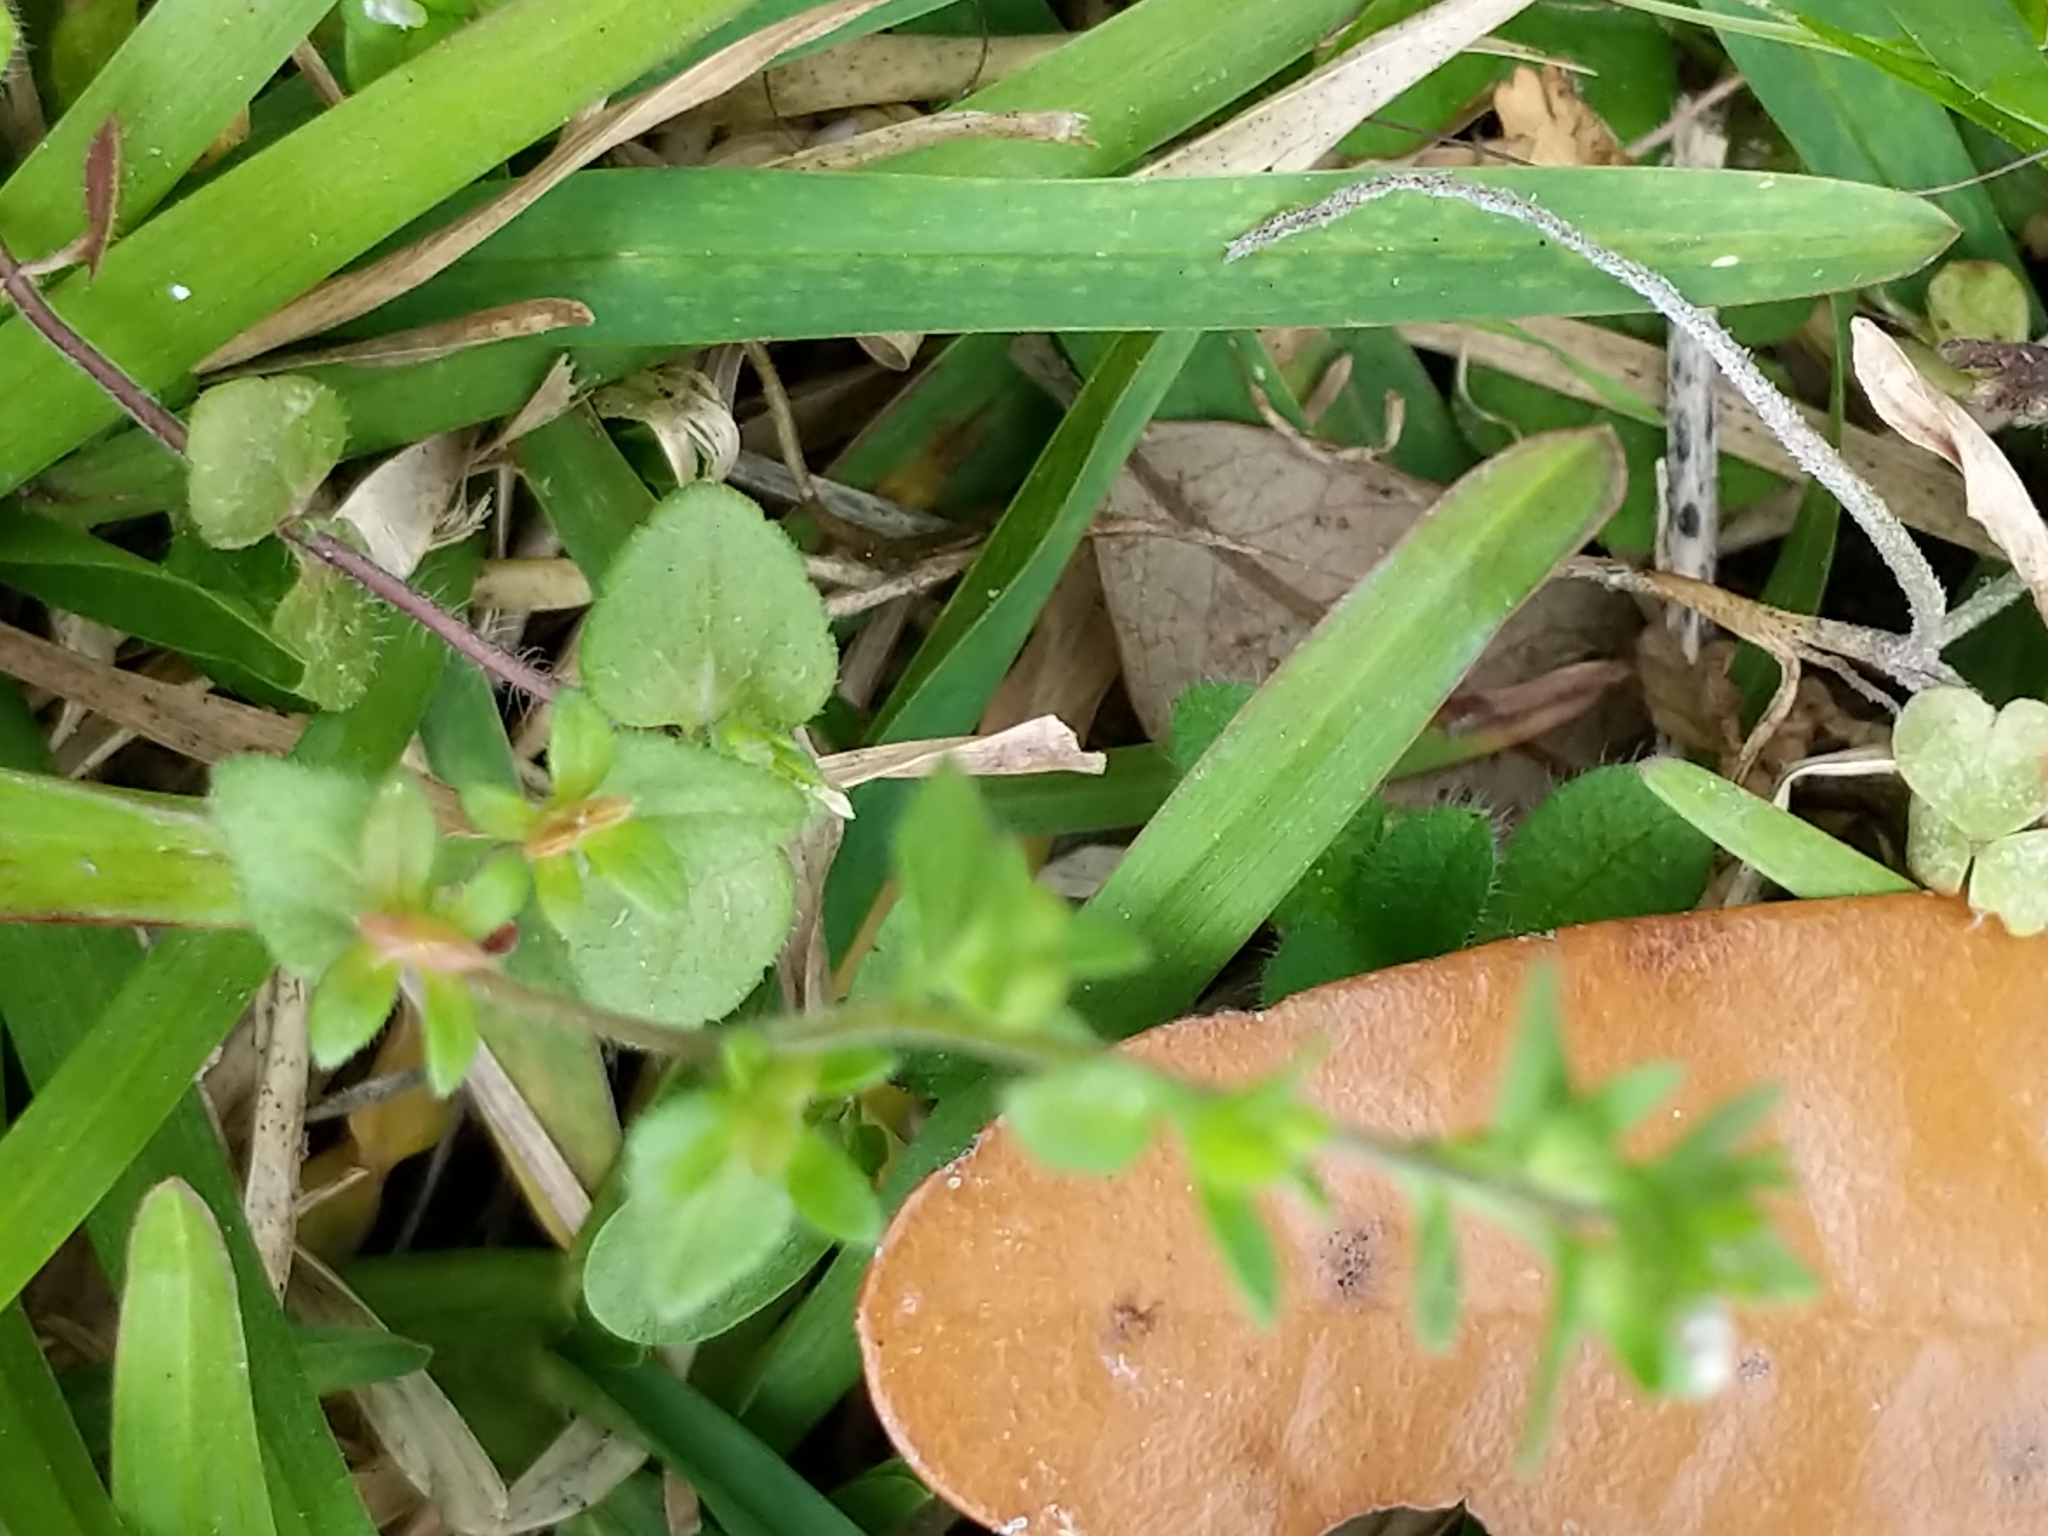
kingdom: Plantae
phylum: Tracheophyta
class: Magnoliopsida
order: Lamiales
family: Plantaginaceae
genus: Veronica
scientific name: Veronica arvensis
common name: Corn speedwell
